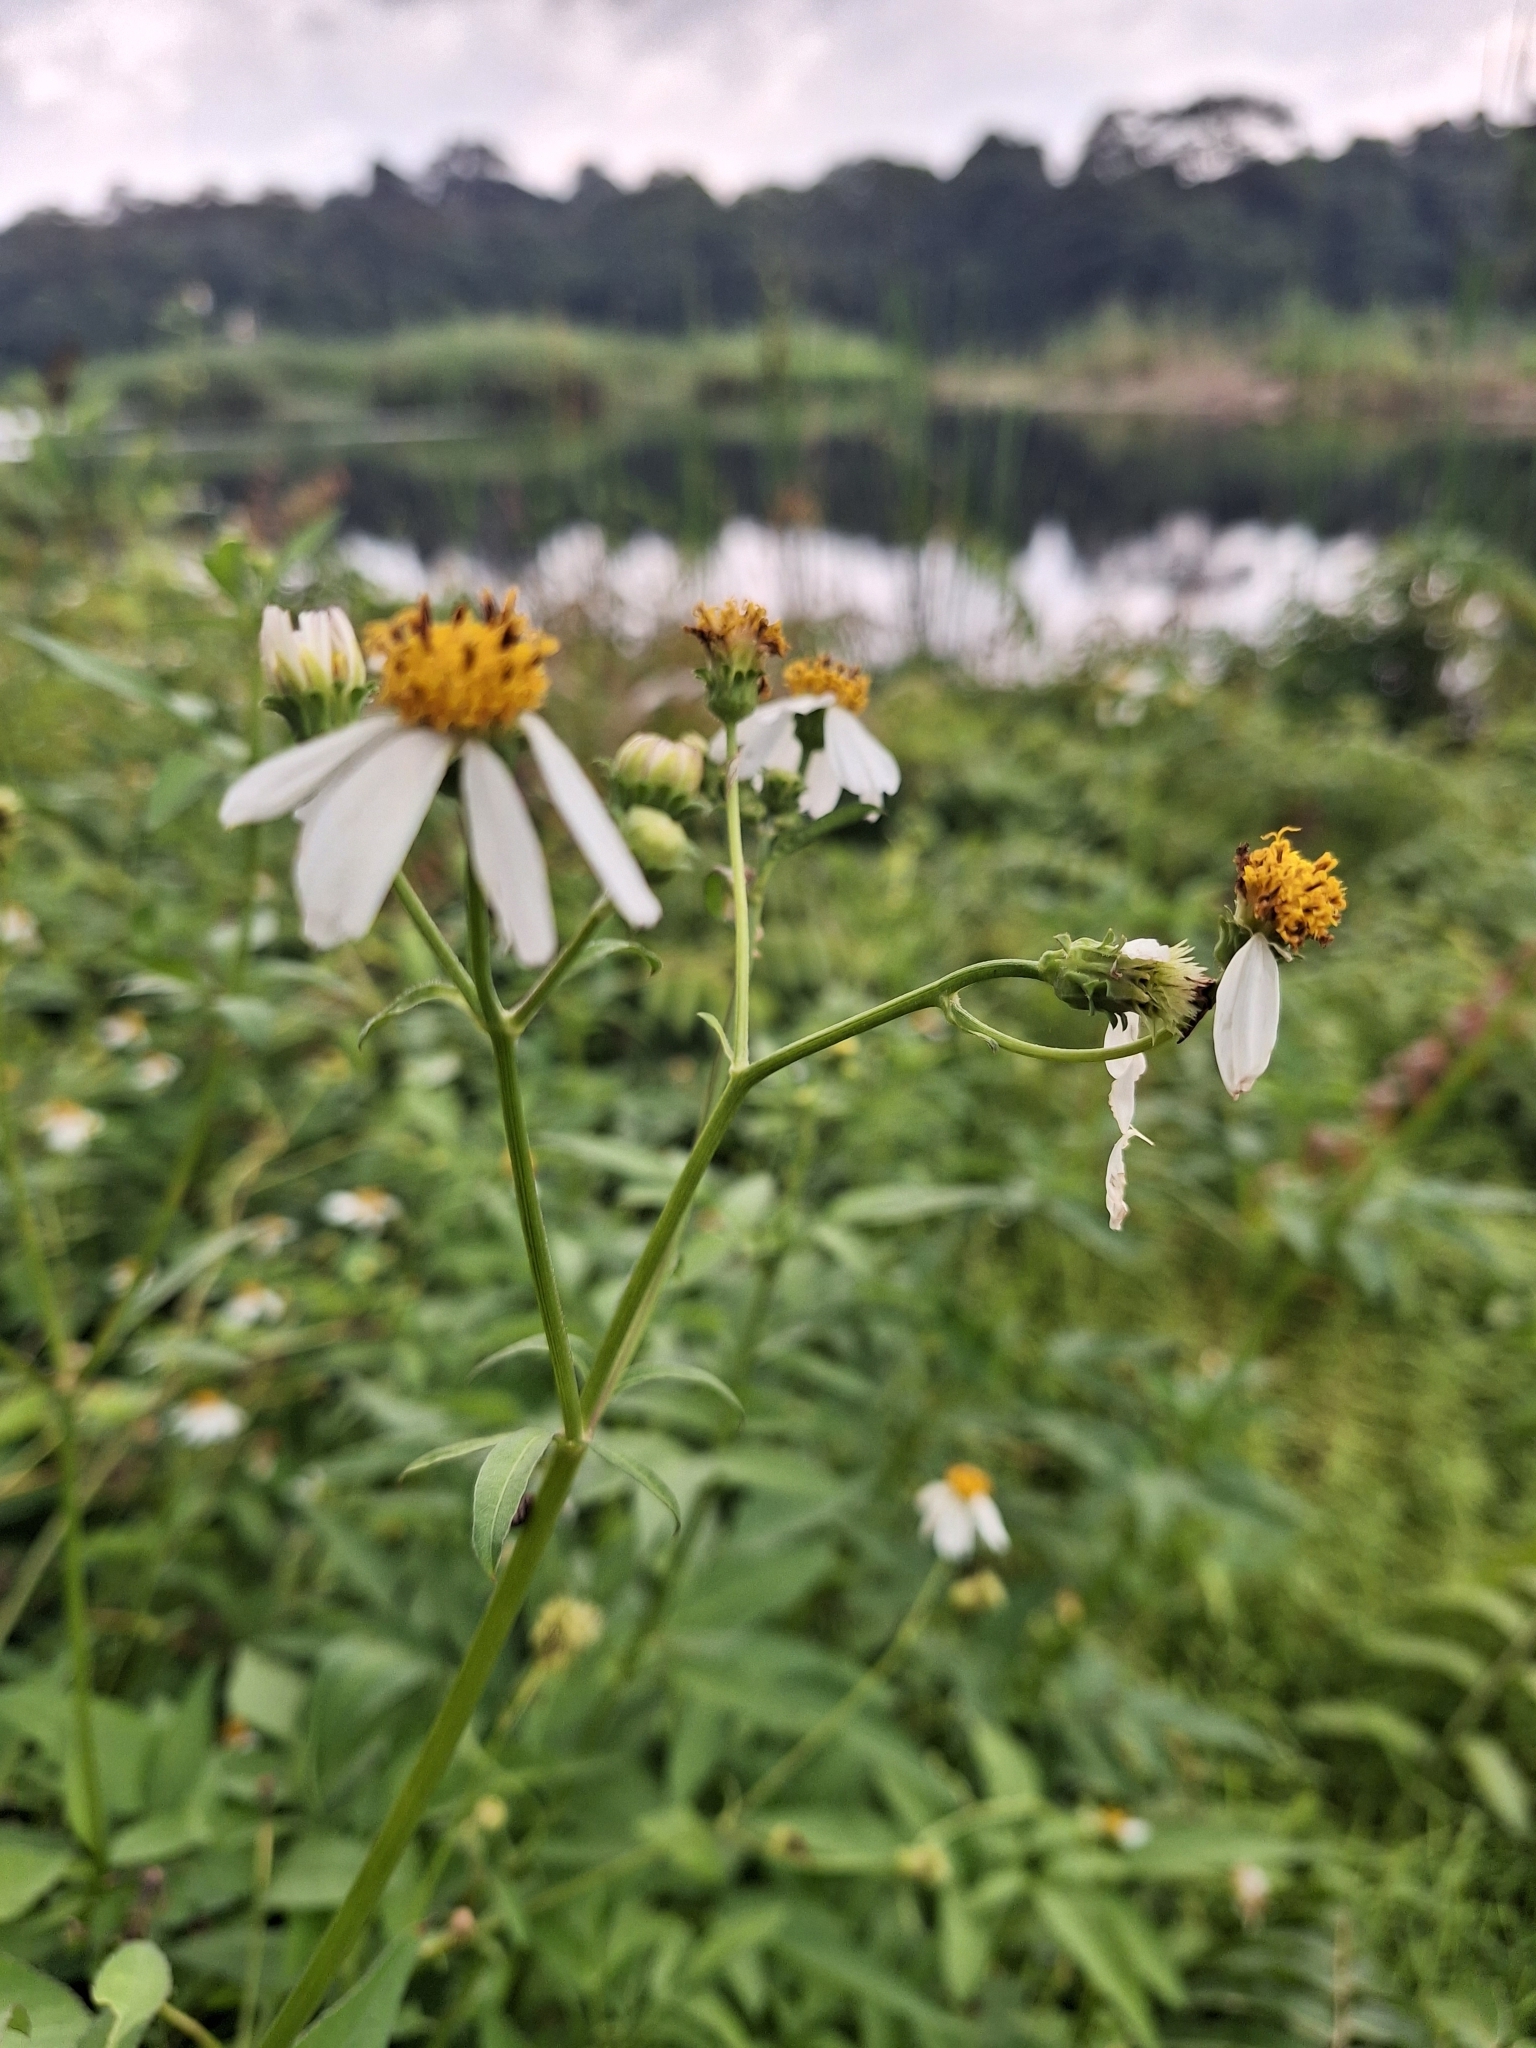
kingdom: Plantae
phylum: Tracheophyta
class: Magnoliopsida
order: Asterales
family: Asteraceae
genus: Bidens
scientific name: Bidens alba
